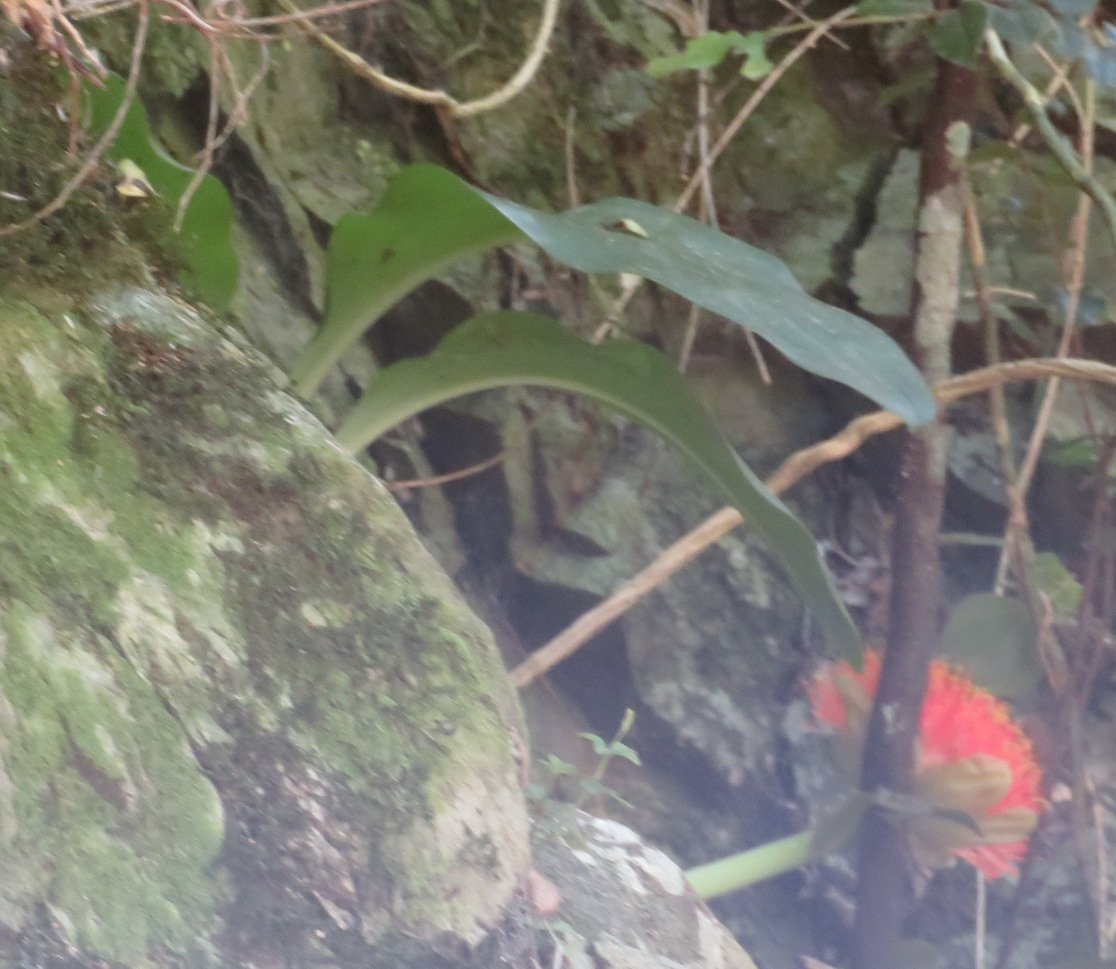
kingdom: Plantae
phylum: Tracheophyta
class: Liliopsida
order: Asparagales
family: Amaryllidaceae
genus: Scadoxus
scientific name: Scadoxus puniceus
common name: Royal-paintbrush
